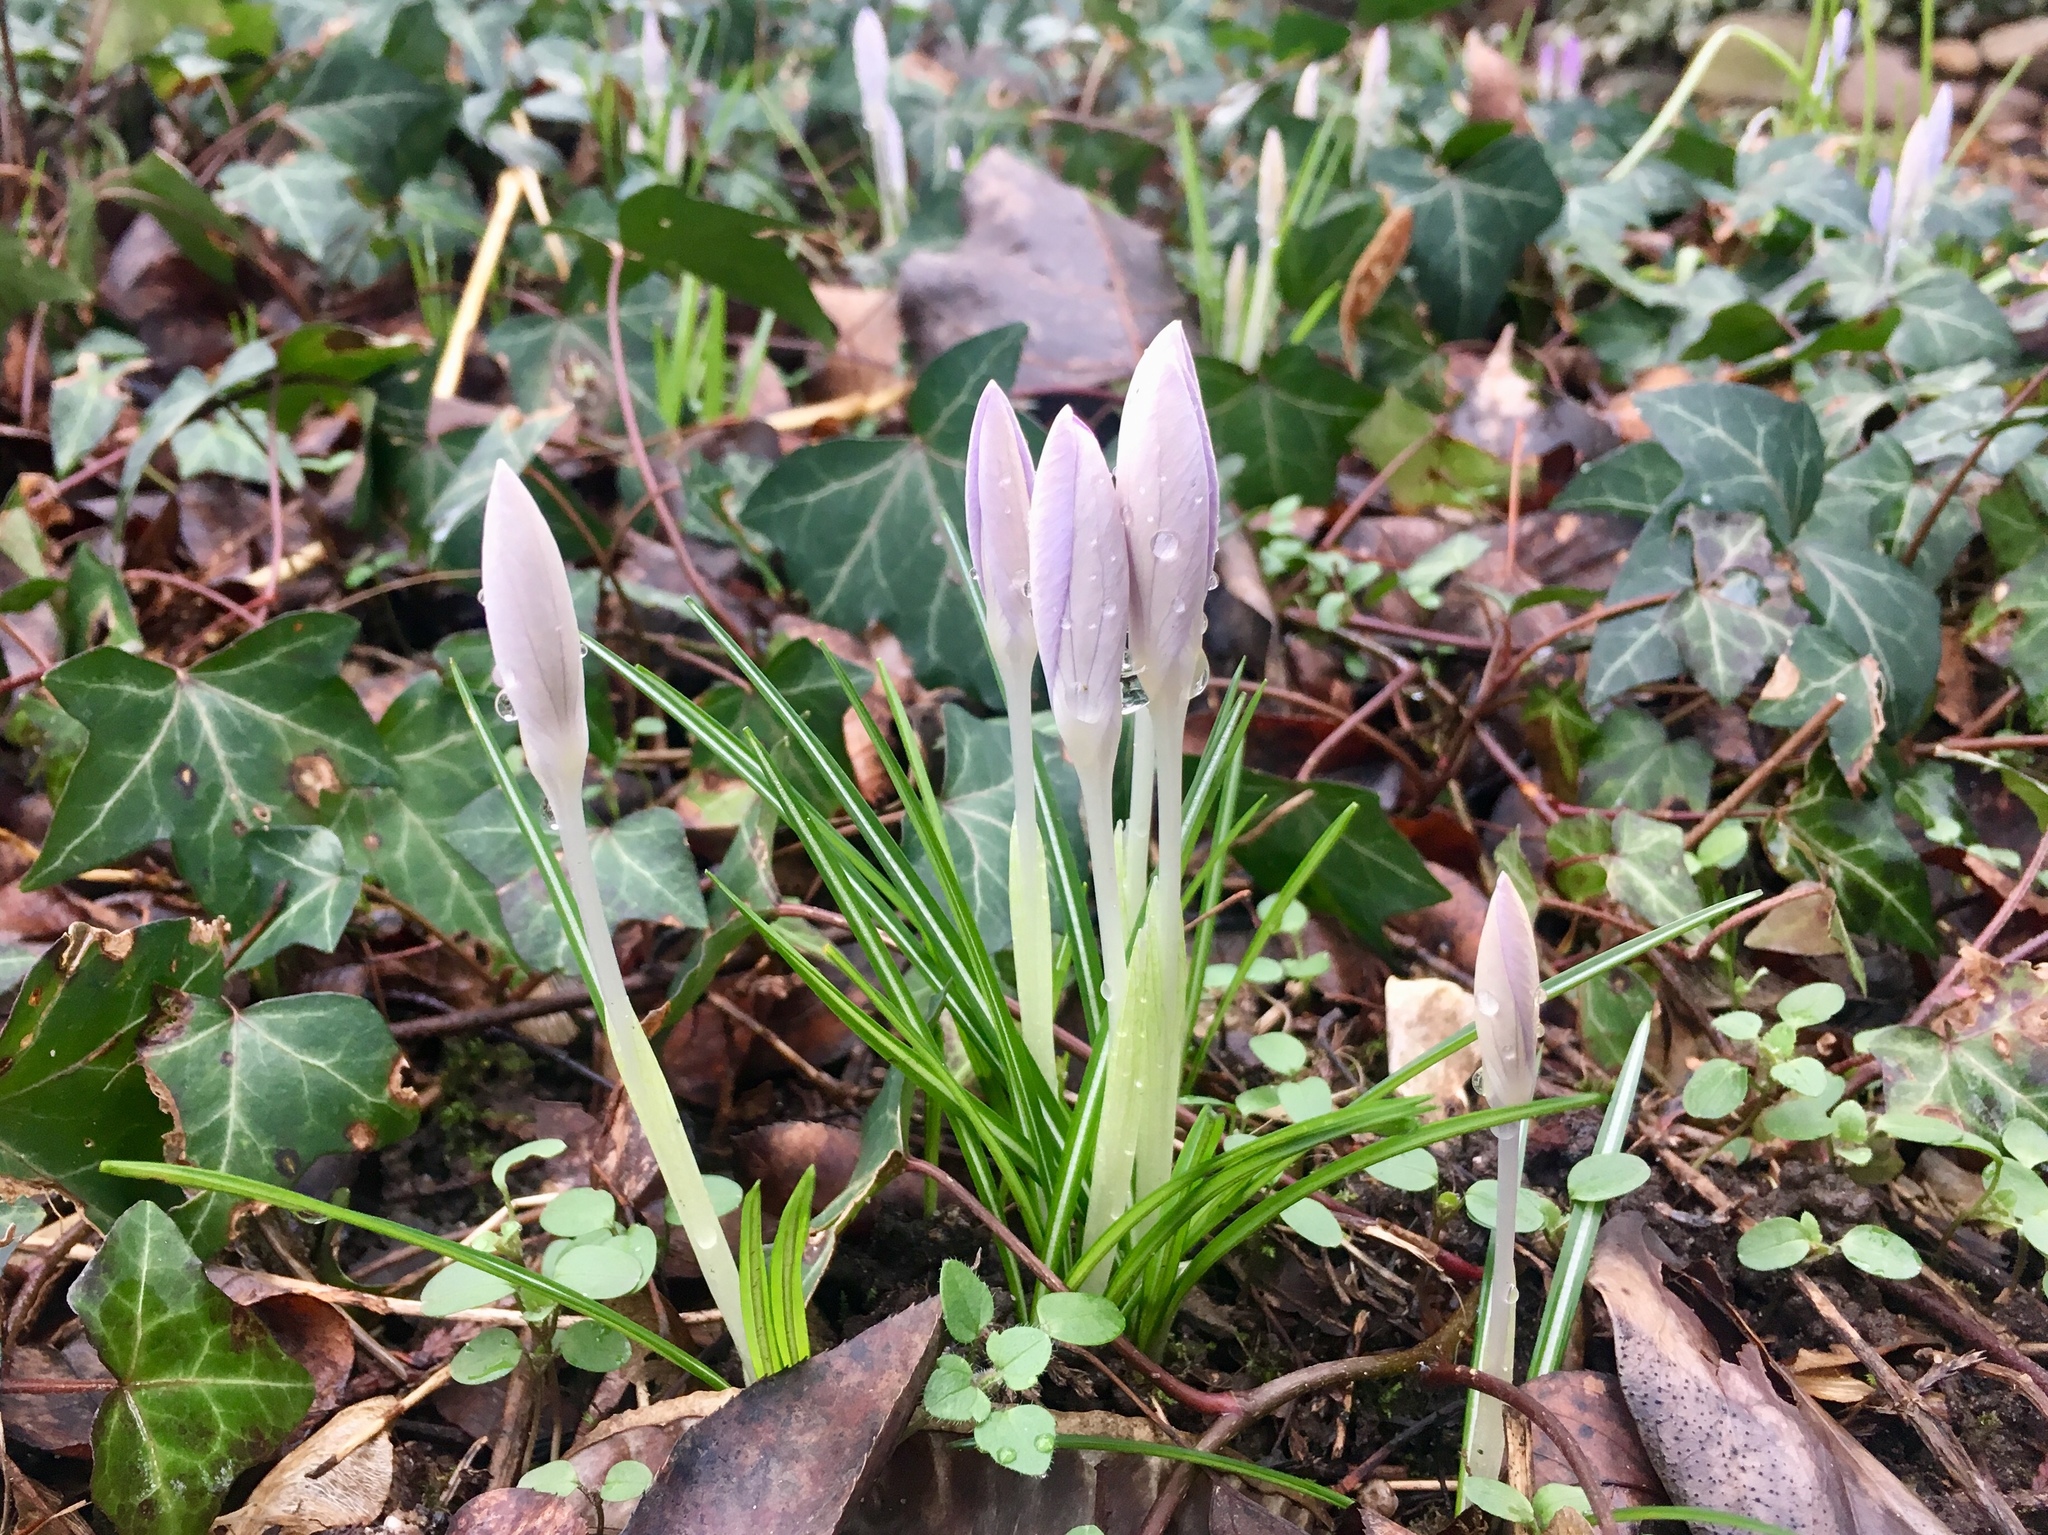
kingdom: Plantae
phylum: Tracheophyta
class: Liliopsida
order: Asparagales
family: Iridaceae
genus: Crocus
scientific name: Crocus tommasinianus
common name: Early crocus
